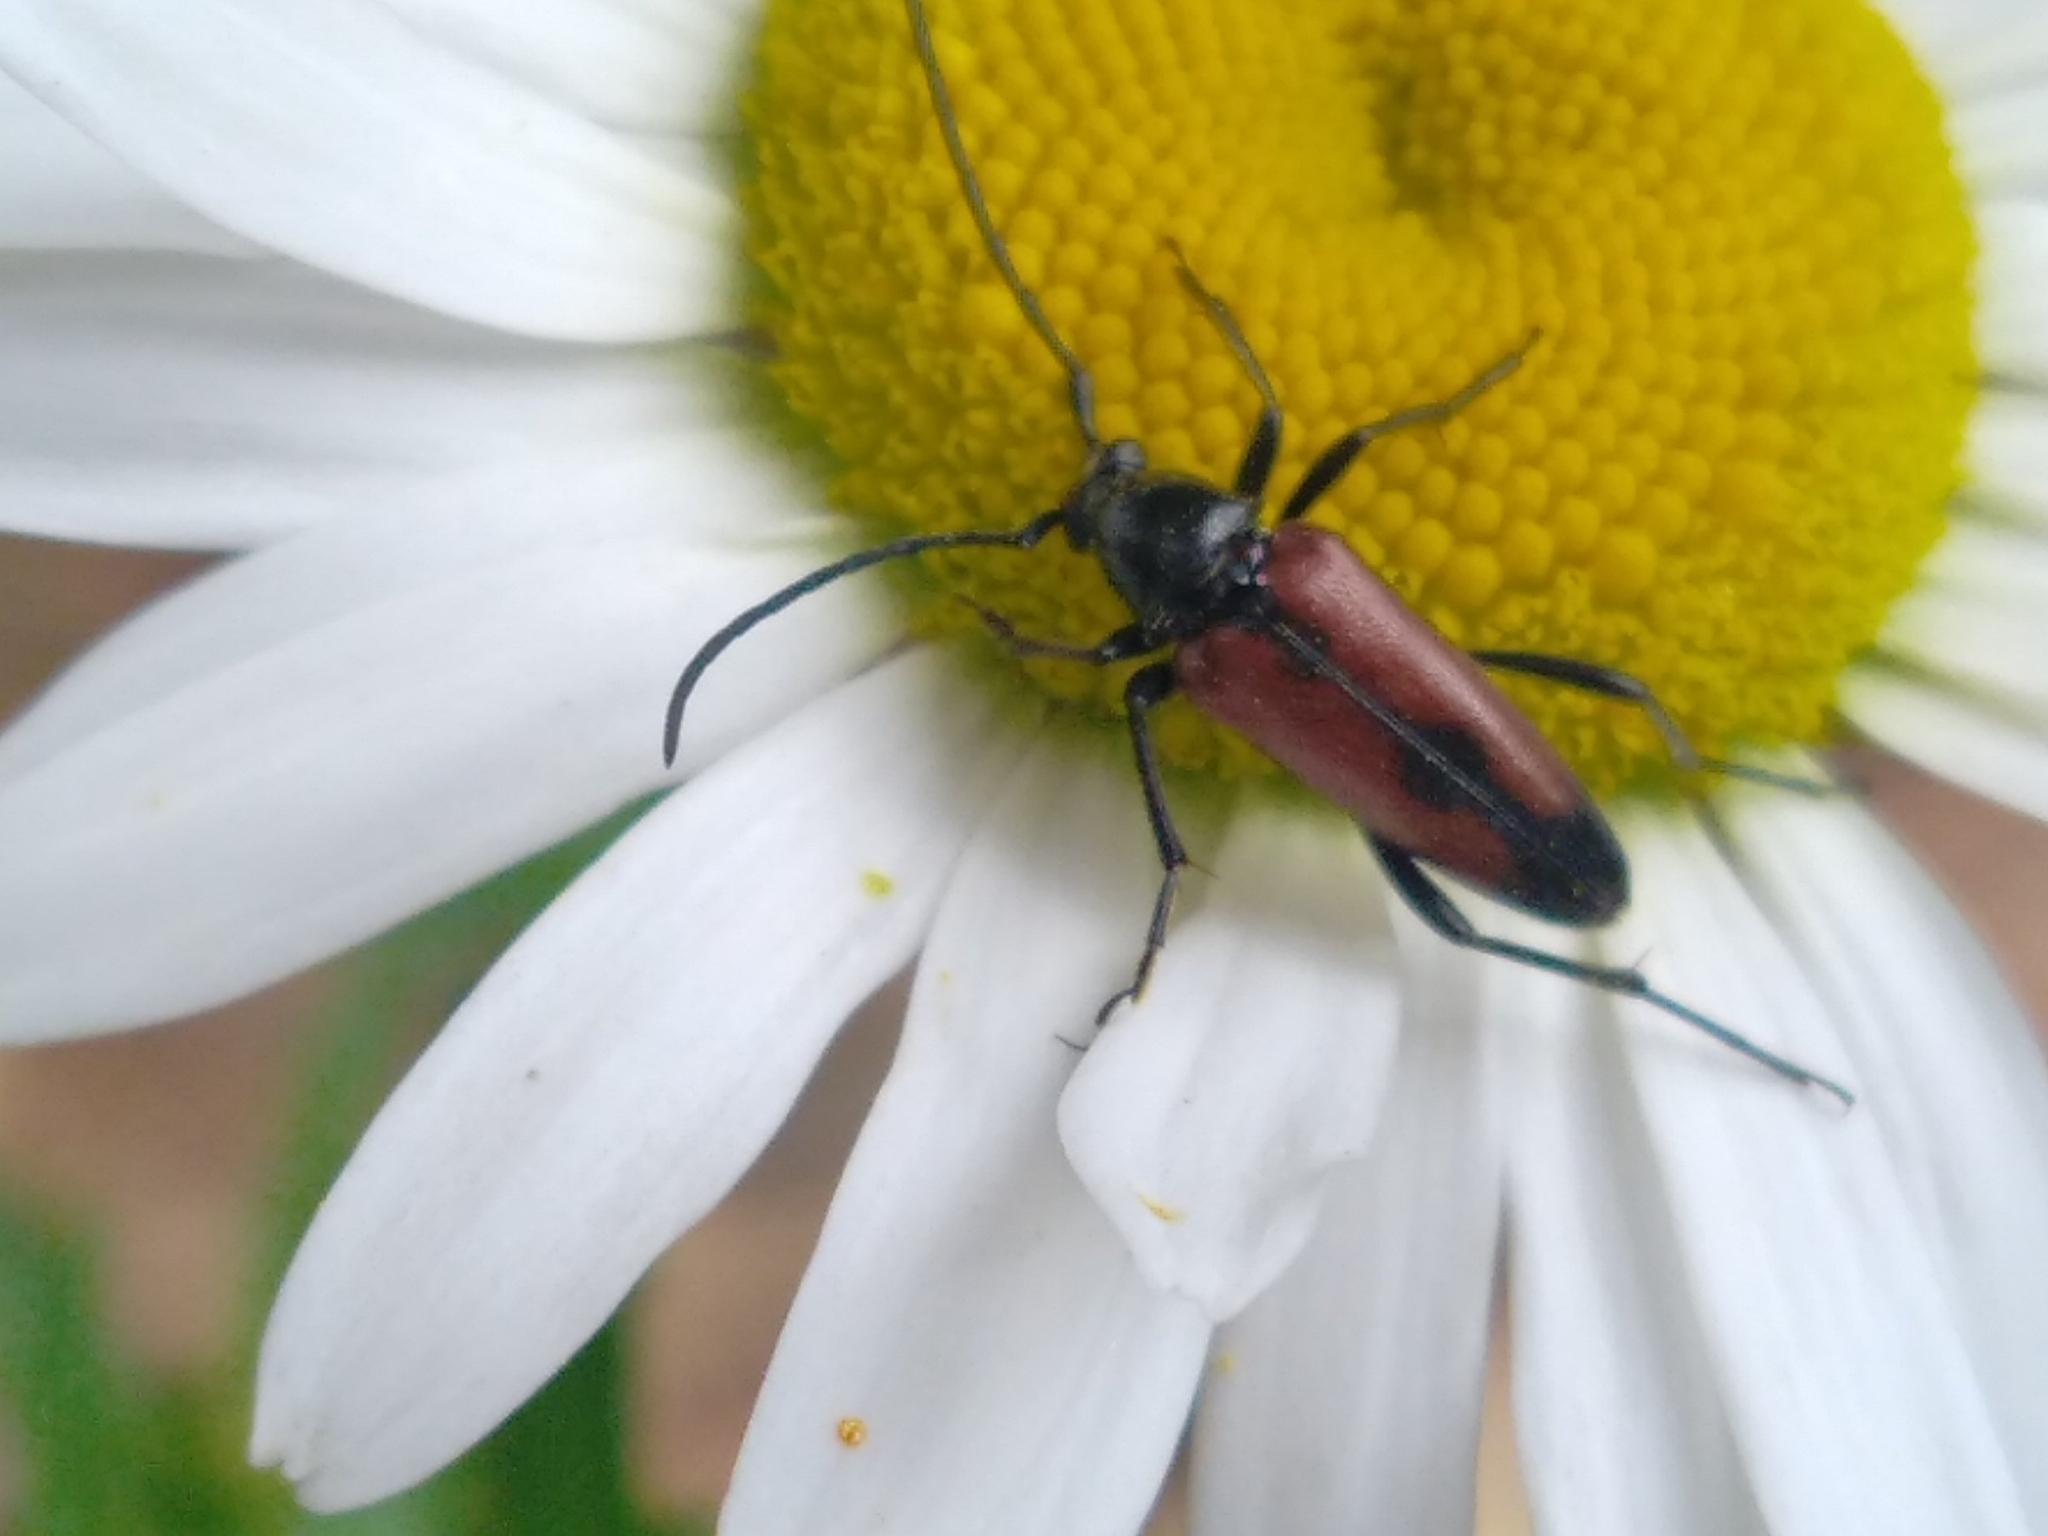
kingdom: Animalia
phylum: Arthropoda
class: Insecta
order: Coleoptera
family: Cerambycidae
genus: Stenurella
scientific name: Stenurella bifasciata
